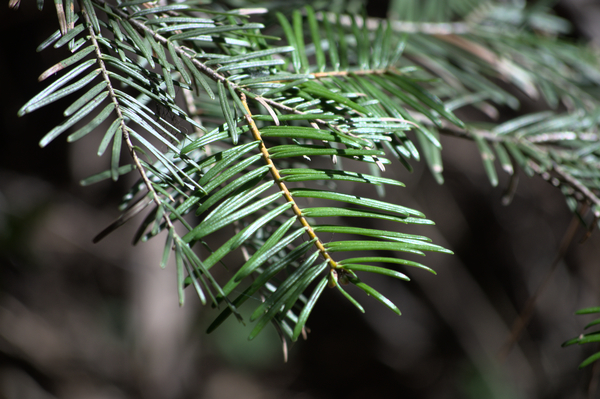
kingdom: Plantae
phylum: Tracheophyta
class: Pinopsida
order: Pinales
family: Pinaceae
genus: Abies
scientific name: Abies grandis
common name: Giant fir
